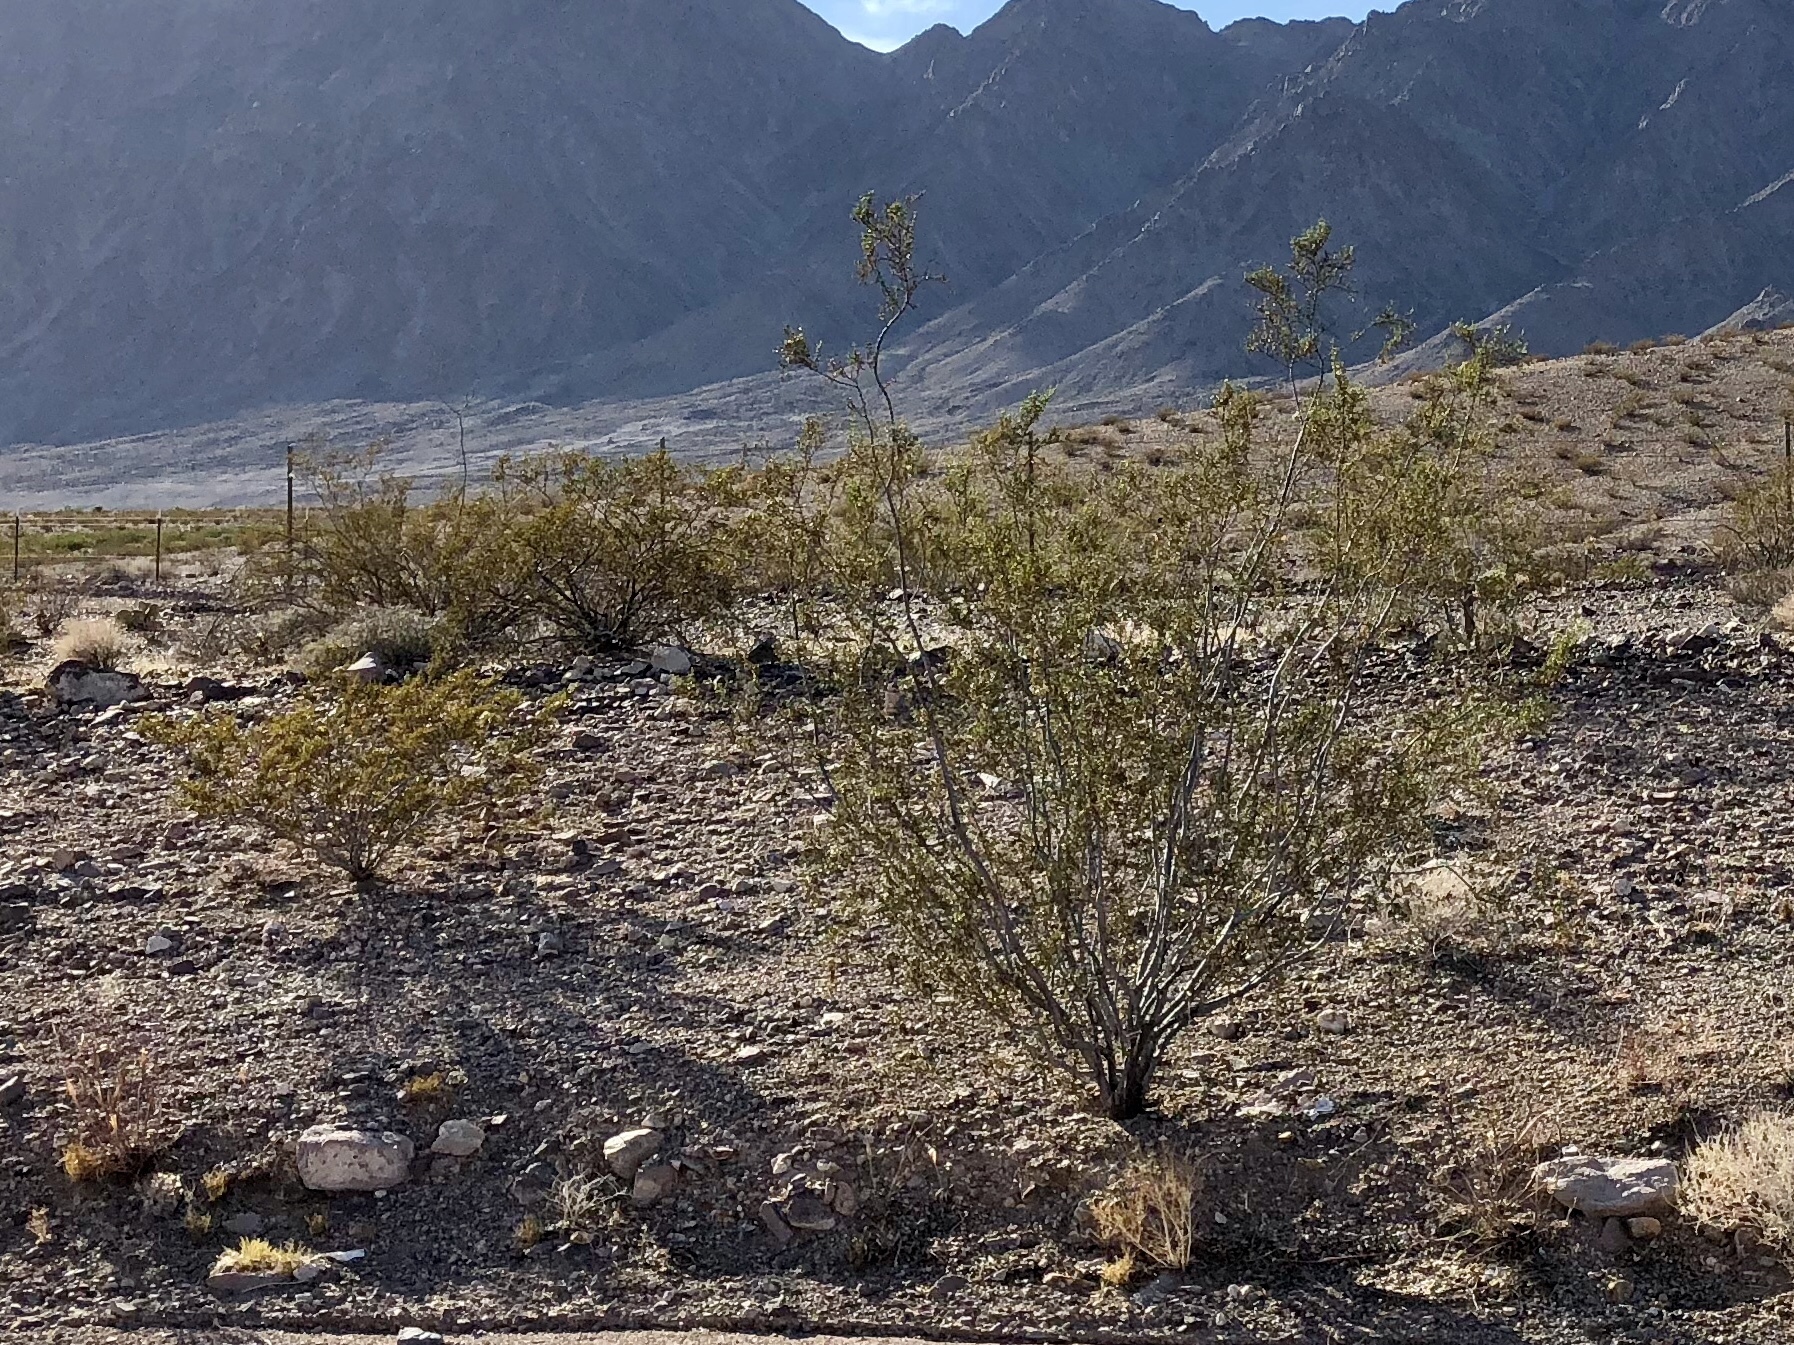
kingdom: Plantae
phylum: Tracheophyta
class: Magnoliopsida
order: Zygophyllales
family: Zygophyllaceae
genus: Larrea
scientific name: Larrea tridentata
